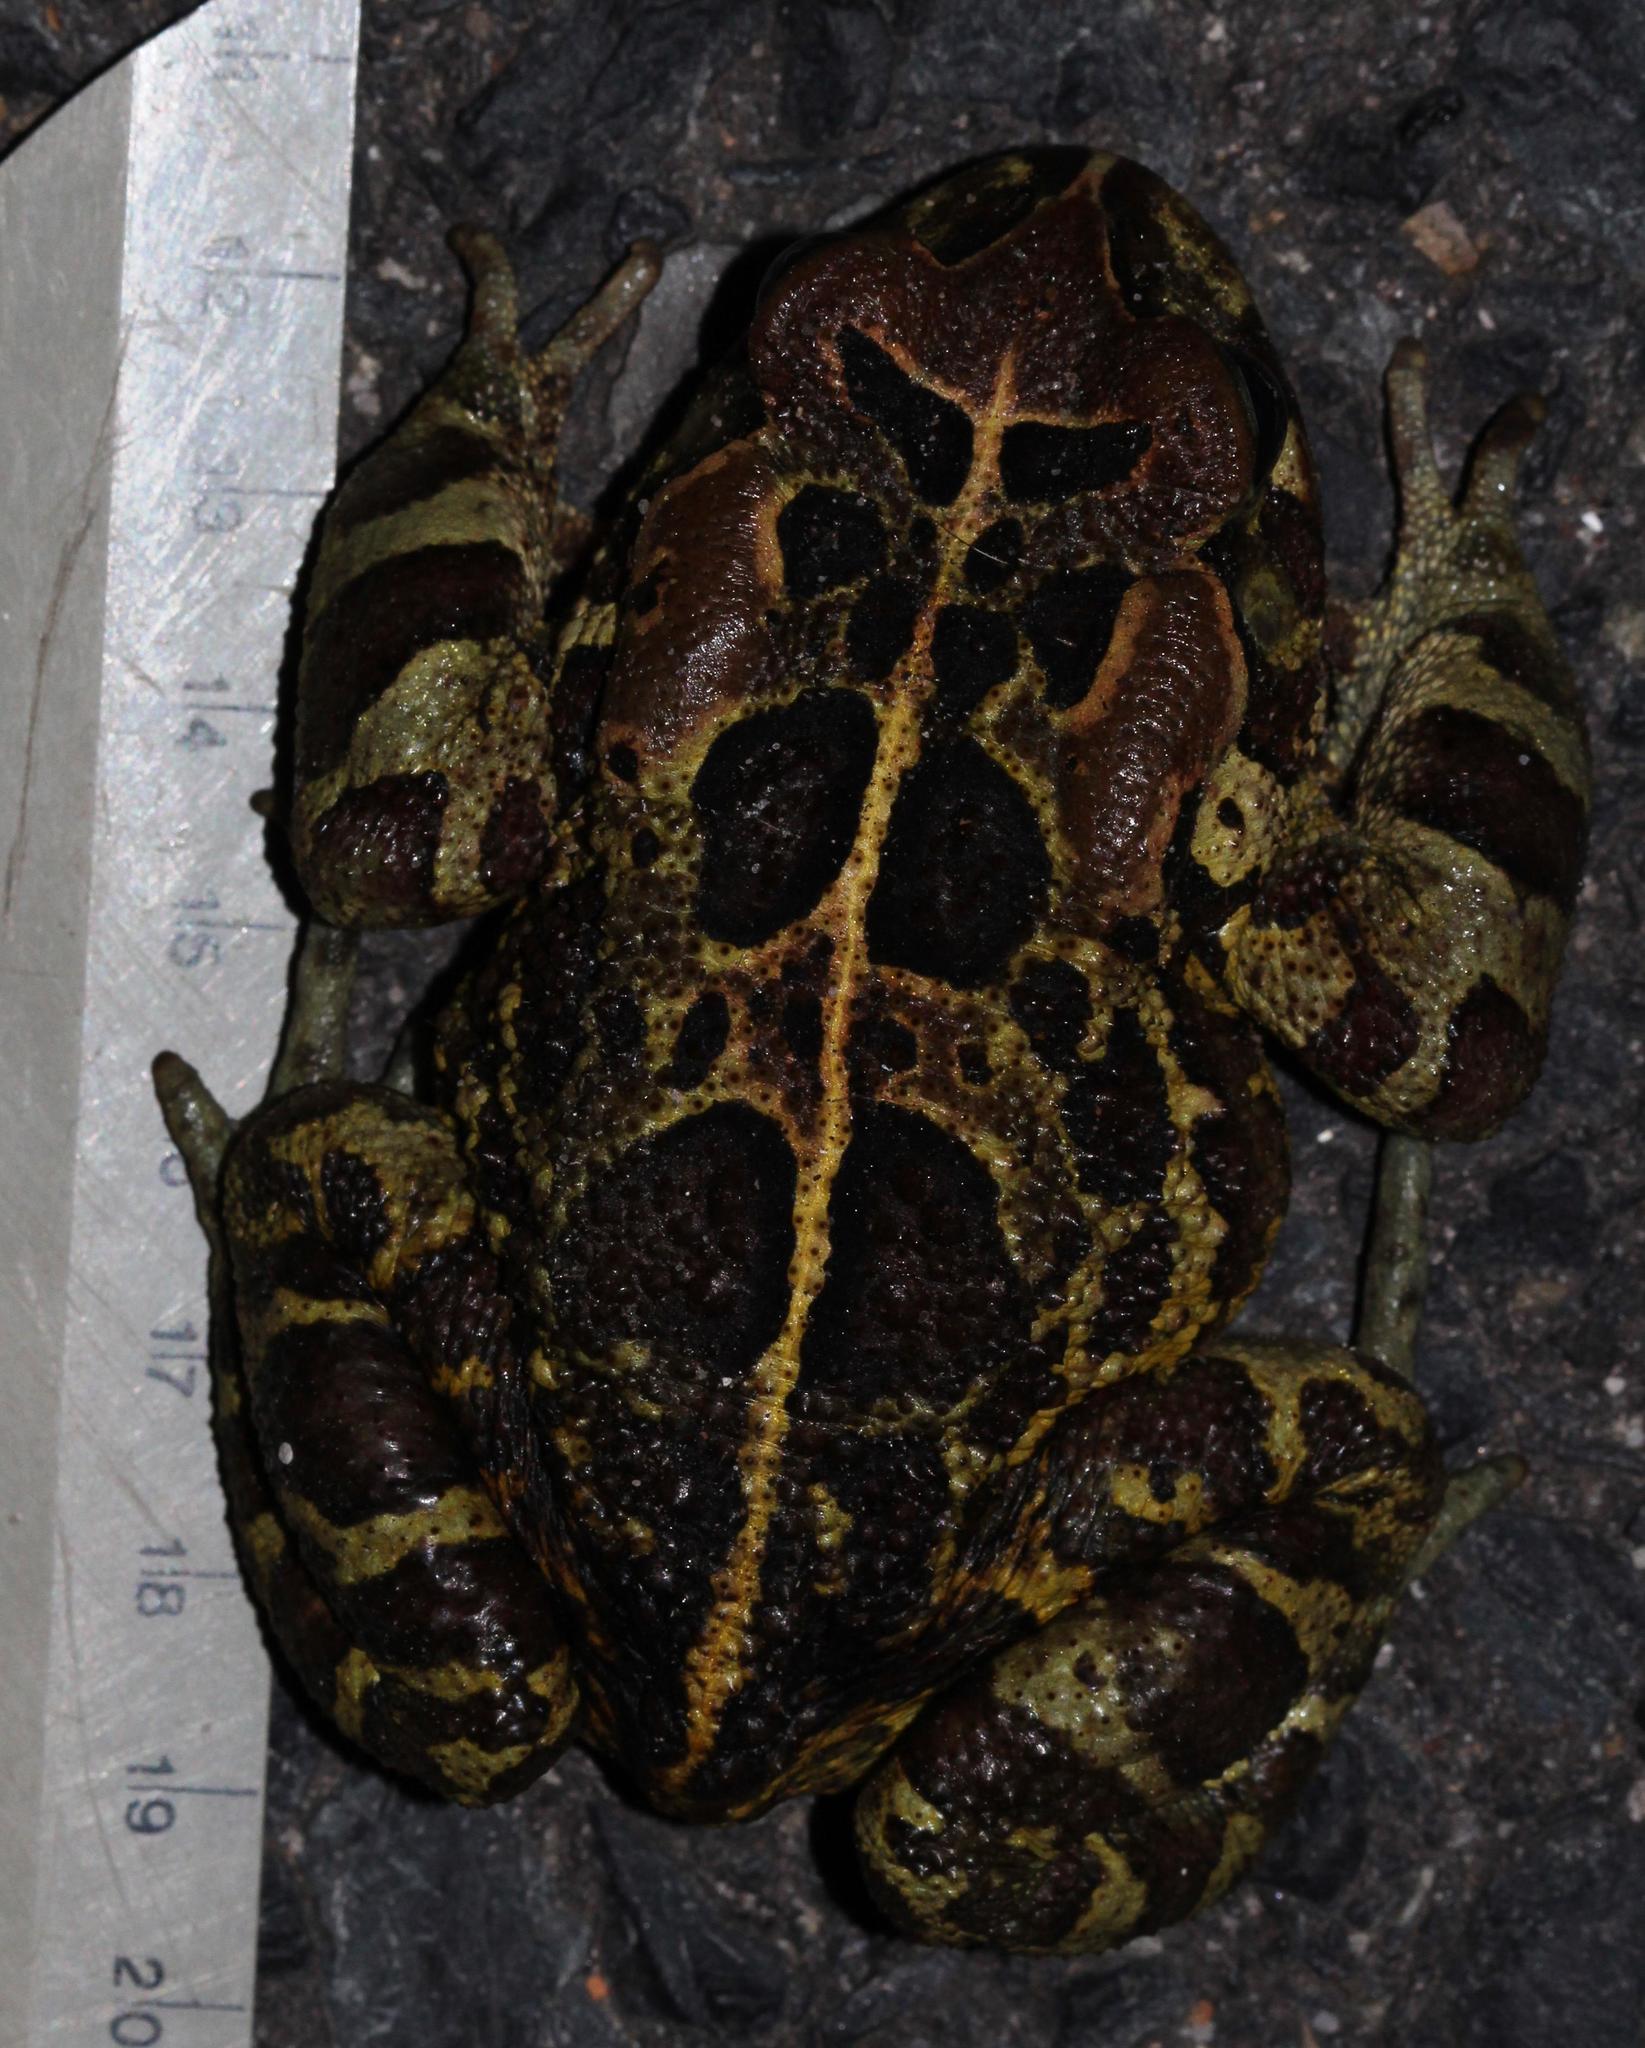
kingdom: Animalia
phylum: Chordata
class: Amphibia
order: Anura
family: Bufonidae
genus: Sclerophrys
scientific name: Sclerophrys pantherina
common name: Panther toad
